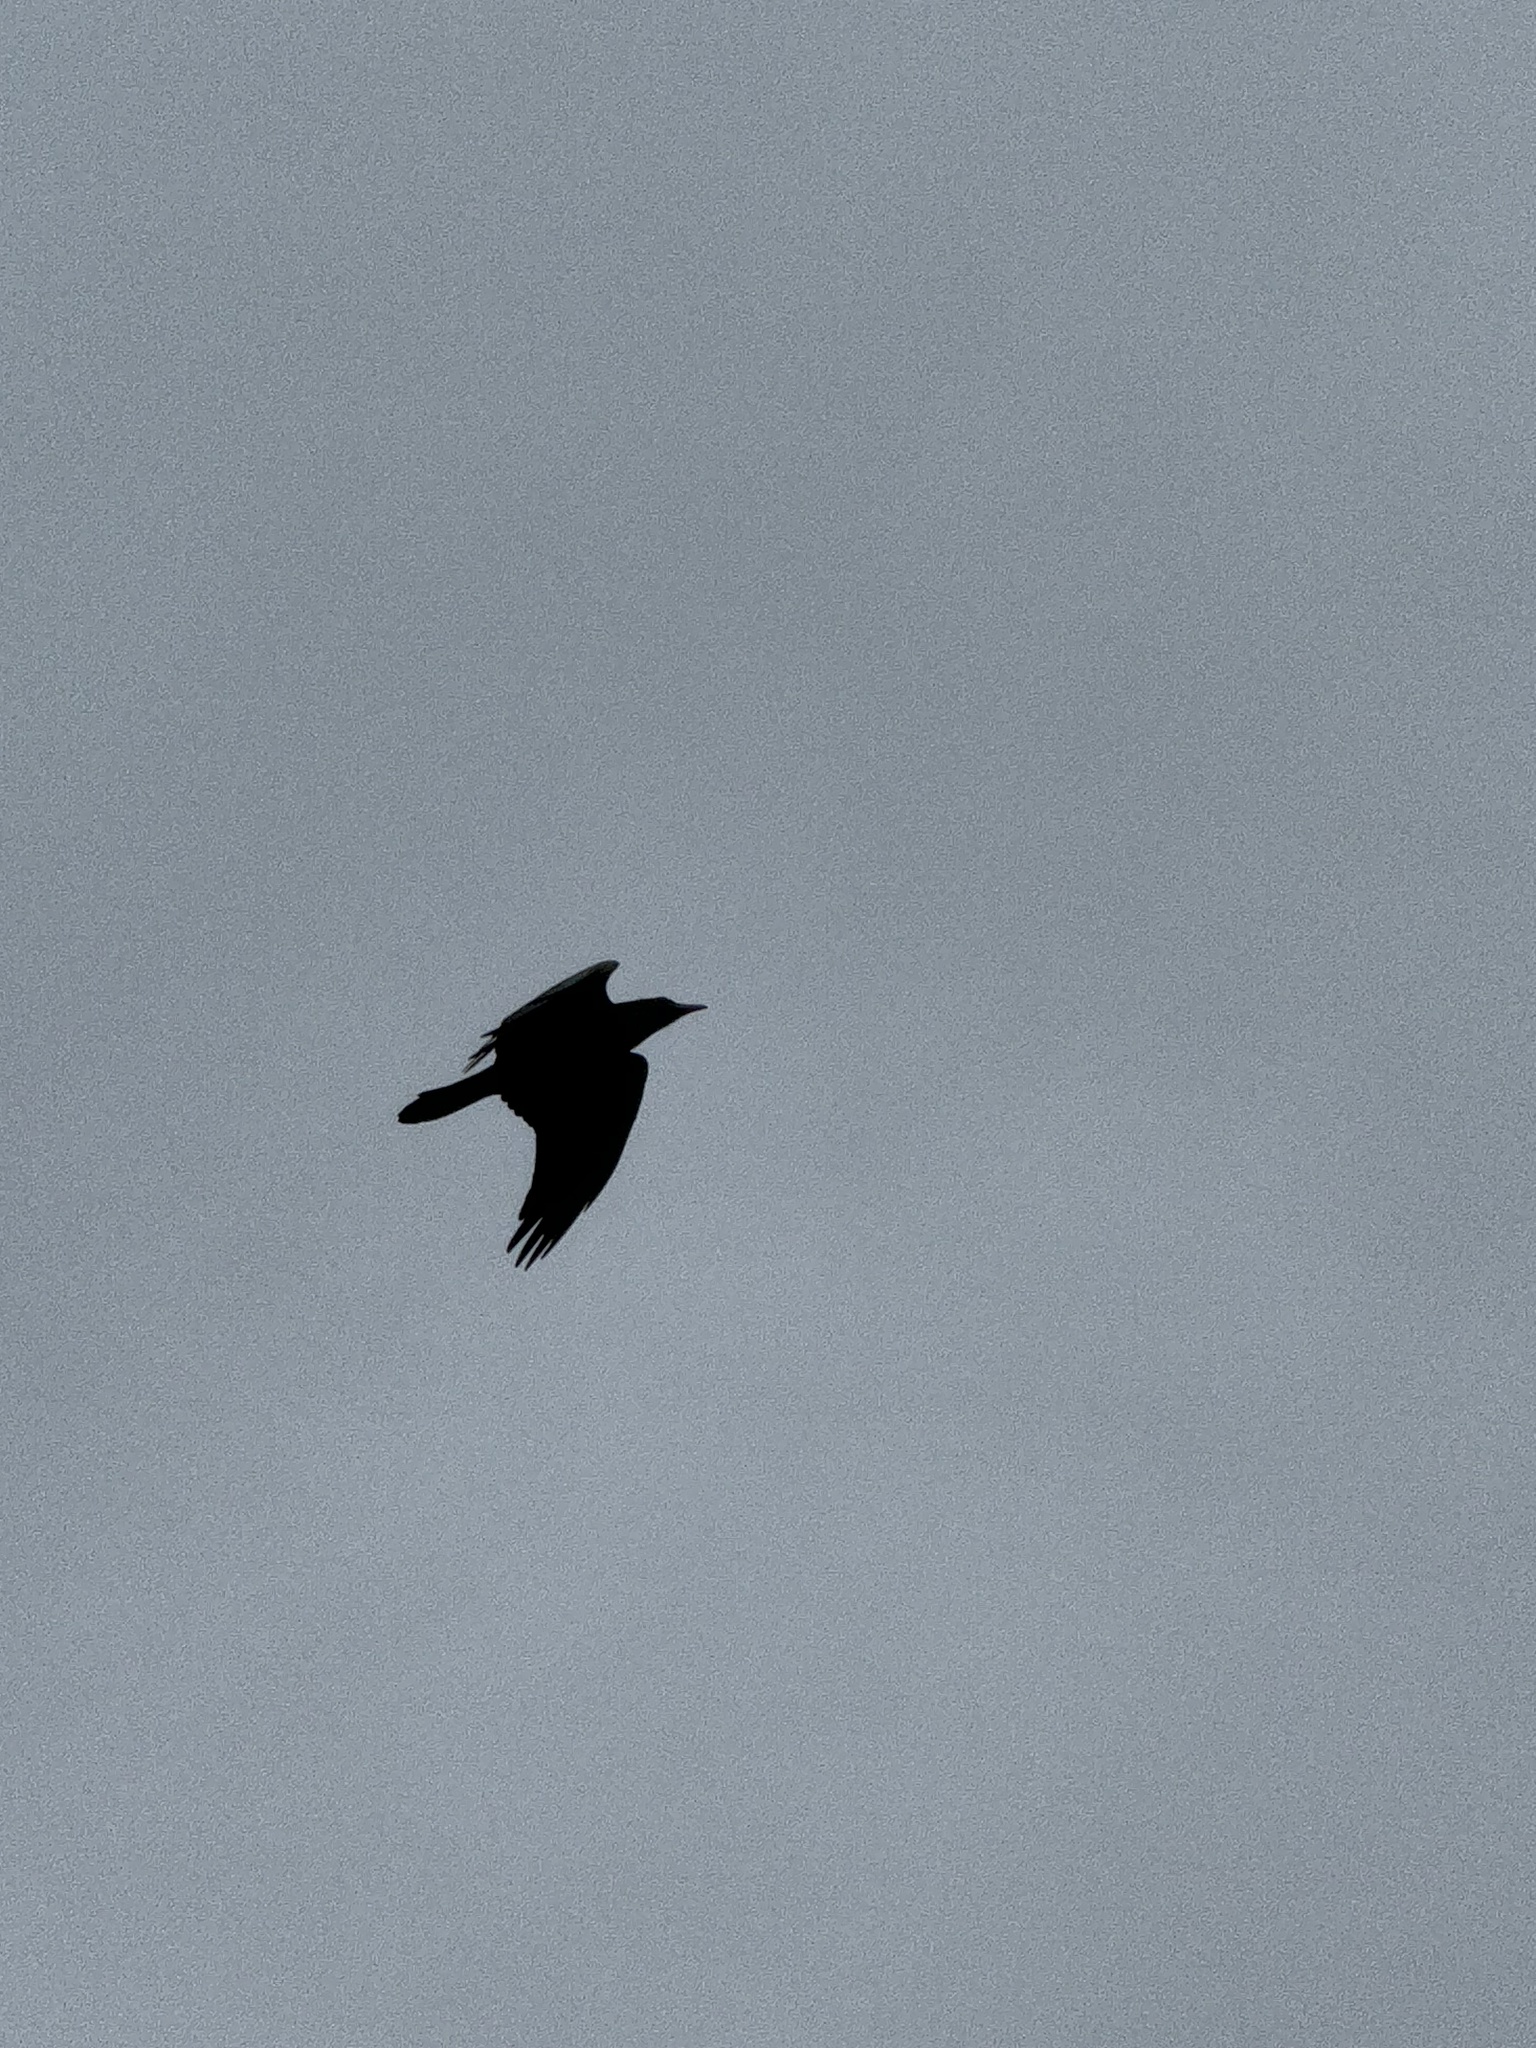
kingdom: Animalia
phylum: Chordata
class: Aves
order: Passeriformes
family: Corvidae
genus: Corvus
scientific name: Corvus corax
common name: Common raven
